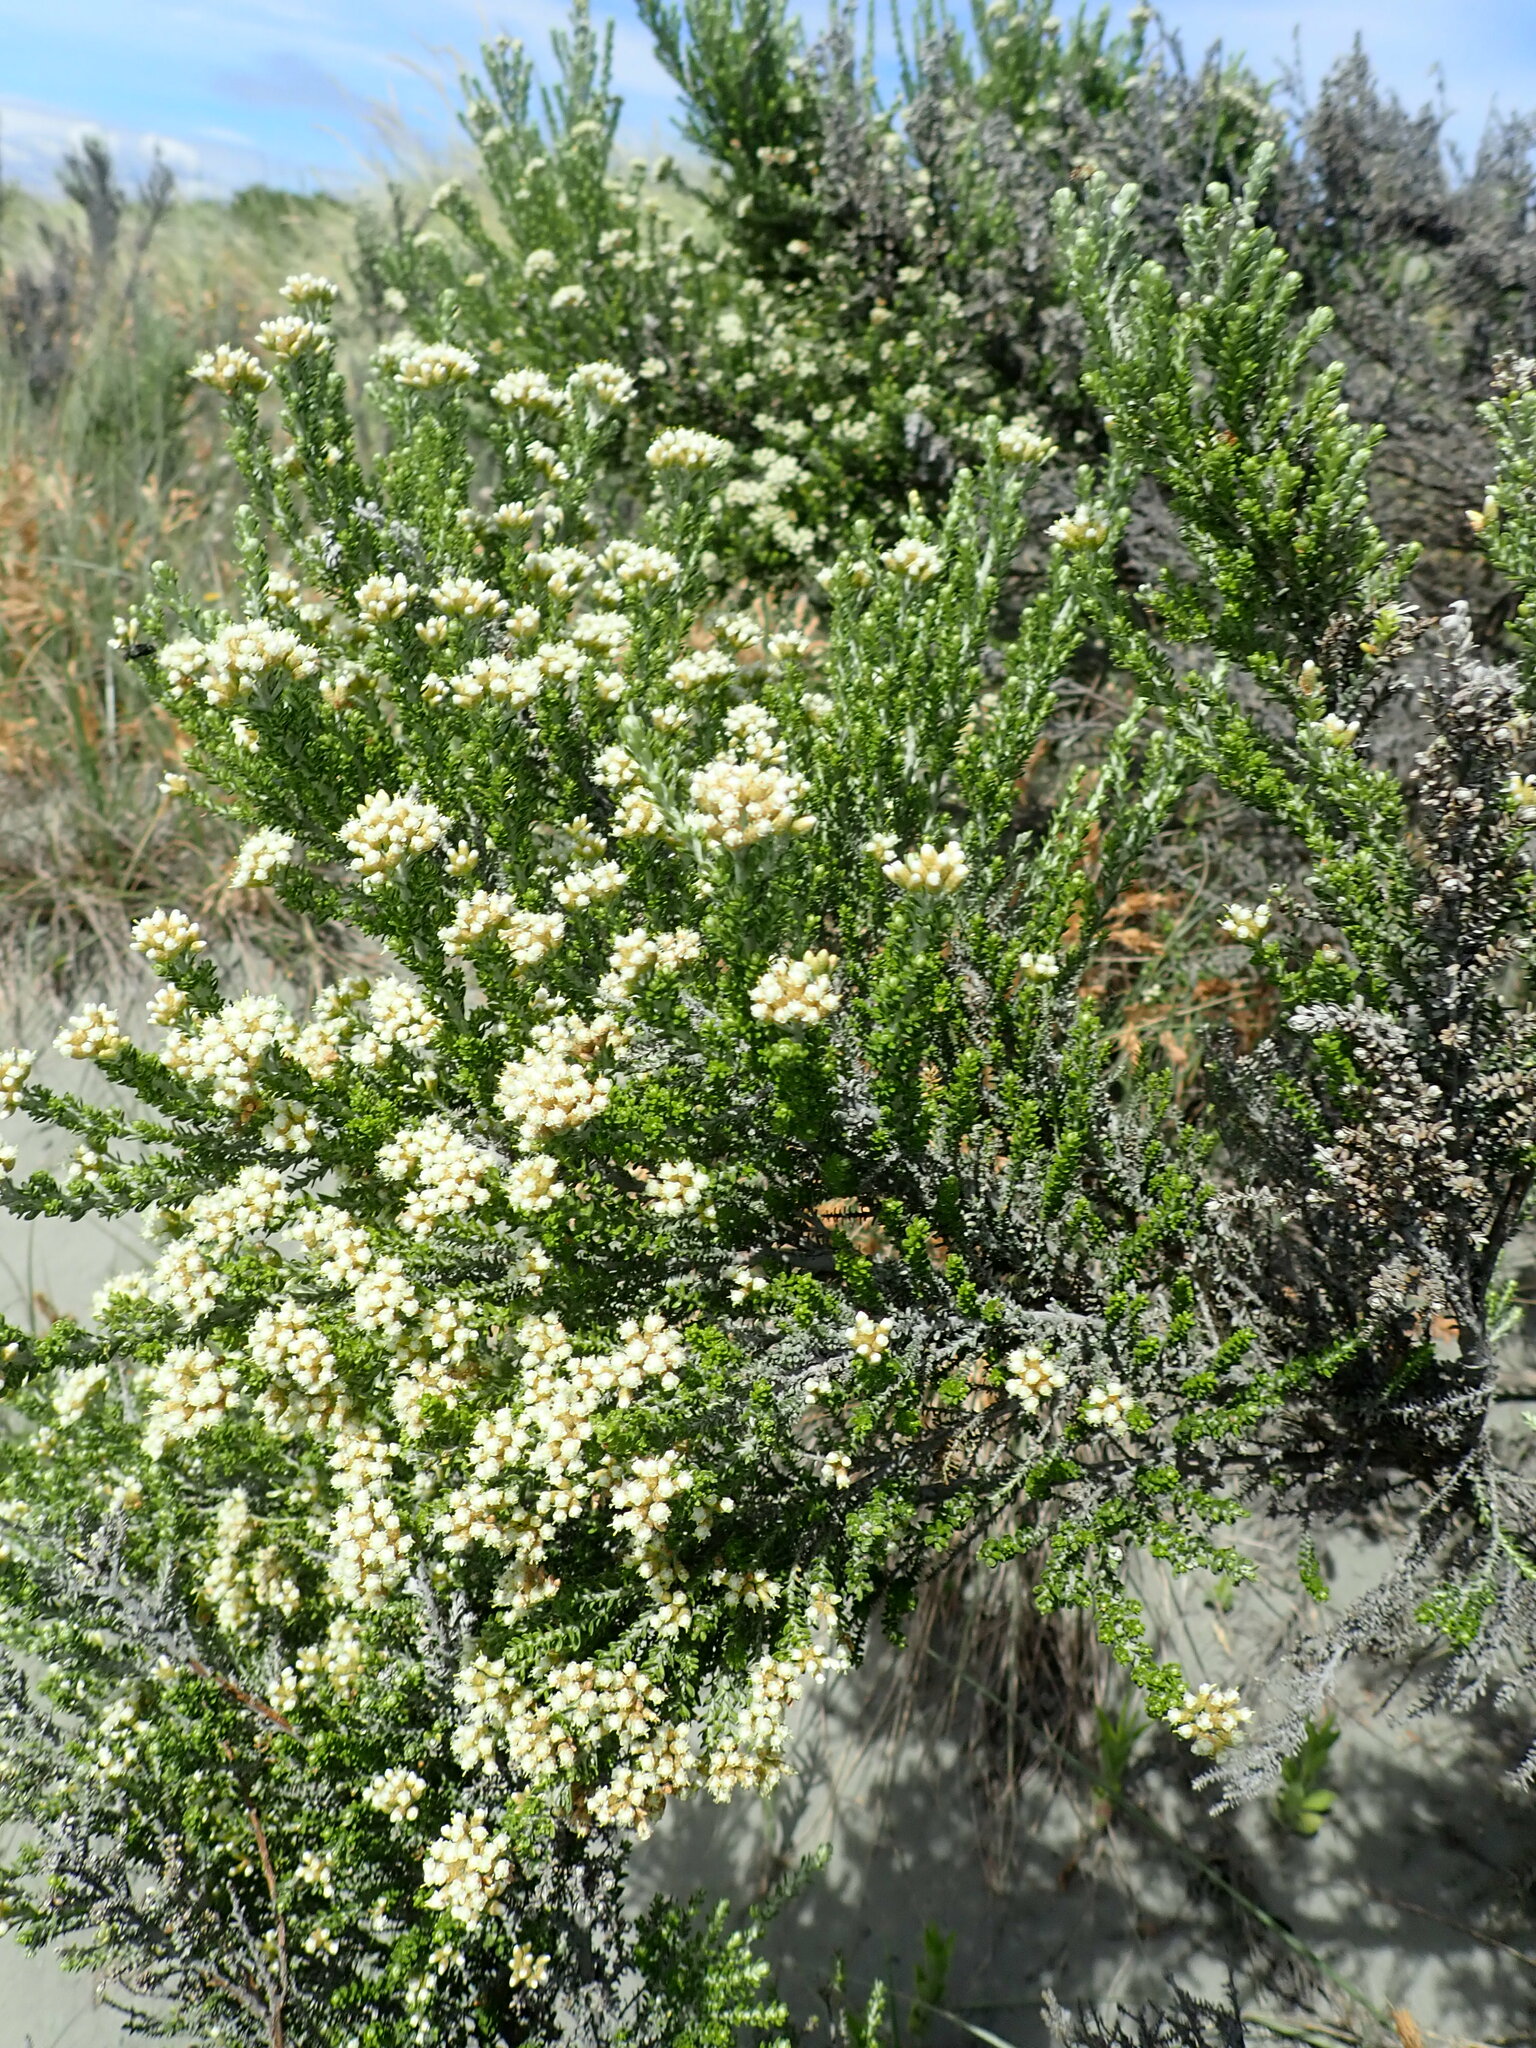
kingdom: Plantae
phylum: Tracheophyta
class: Magnoliopsida
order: Asterales
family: Asteraceae
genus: Ozothamnus
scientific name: Ozothamnus leptophyllus
